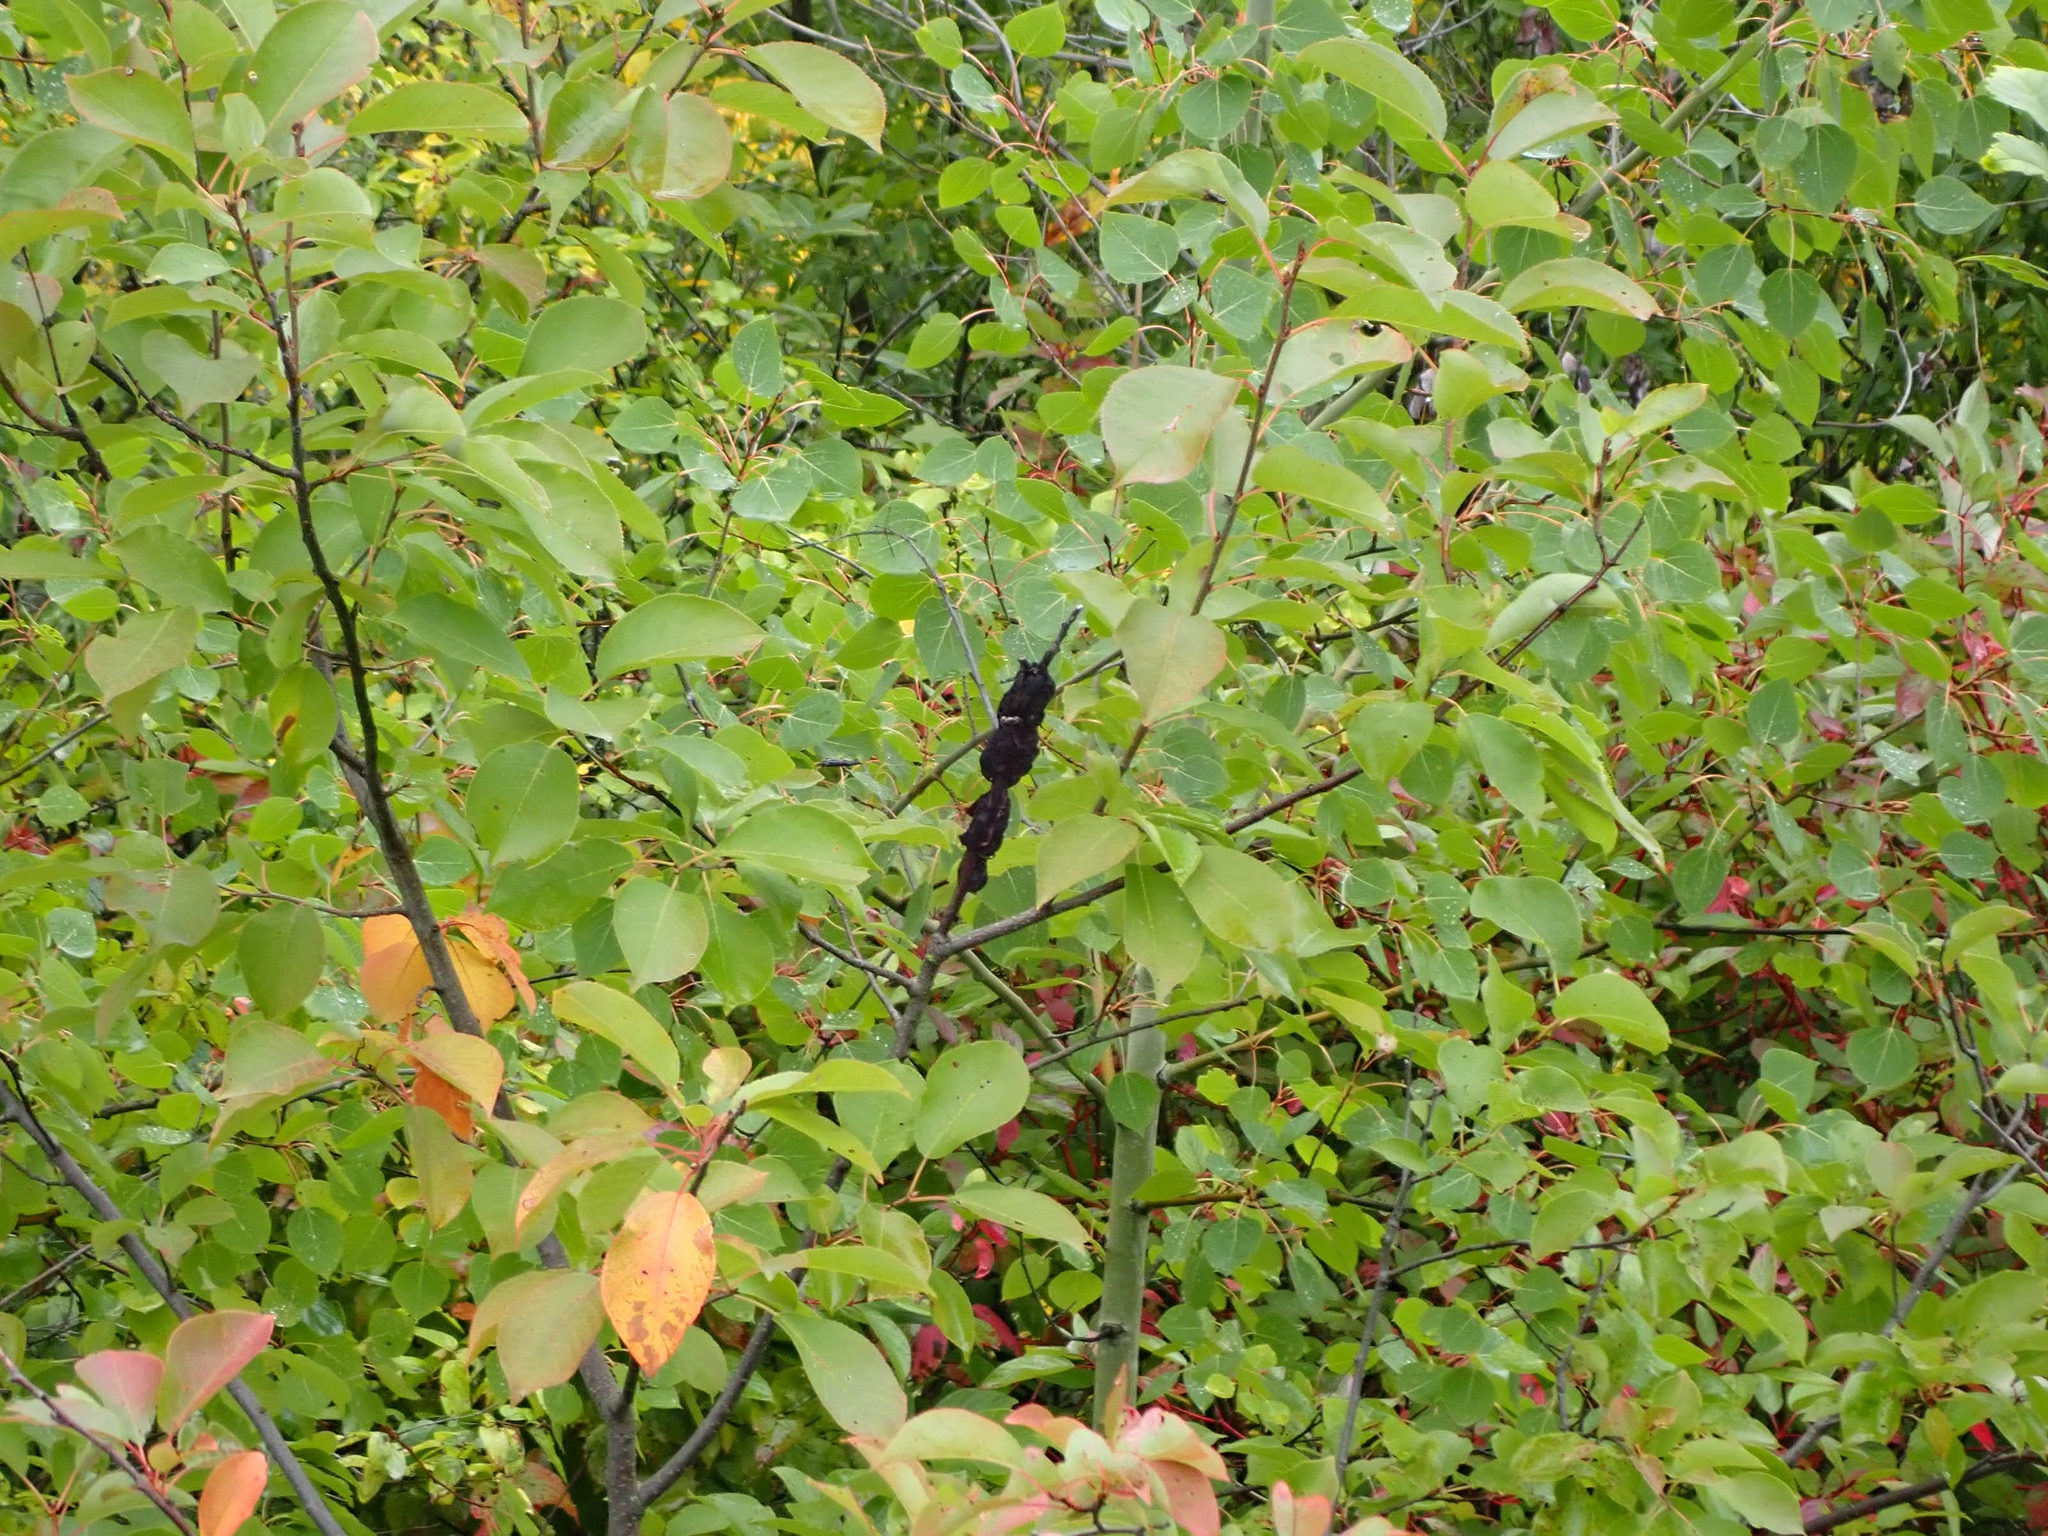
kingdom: Fungi
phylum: Ascomycota
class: Dothideomycetes
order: Venturiales
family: Venturiaceae
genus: Apiosporina
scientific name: Apiosporina morbosa
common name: Black knot
